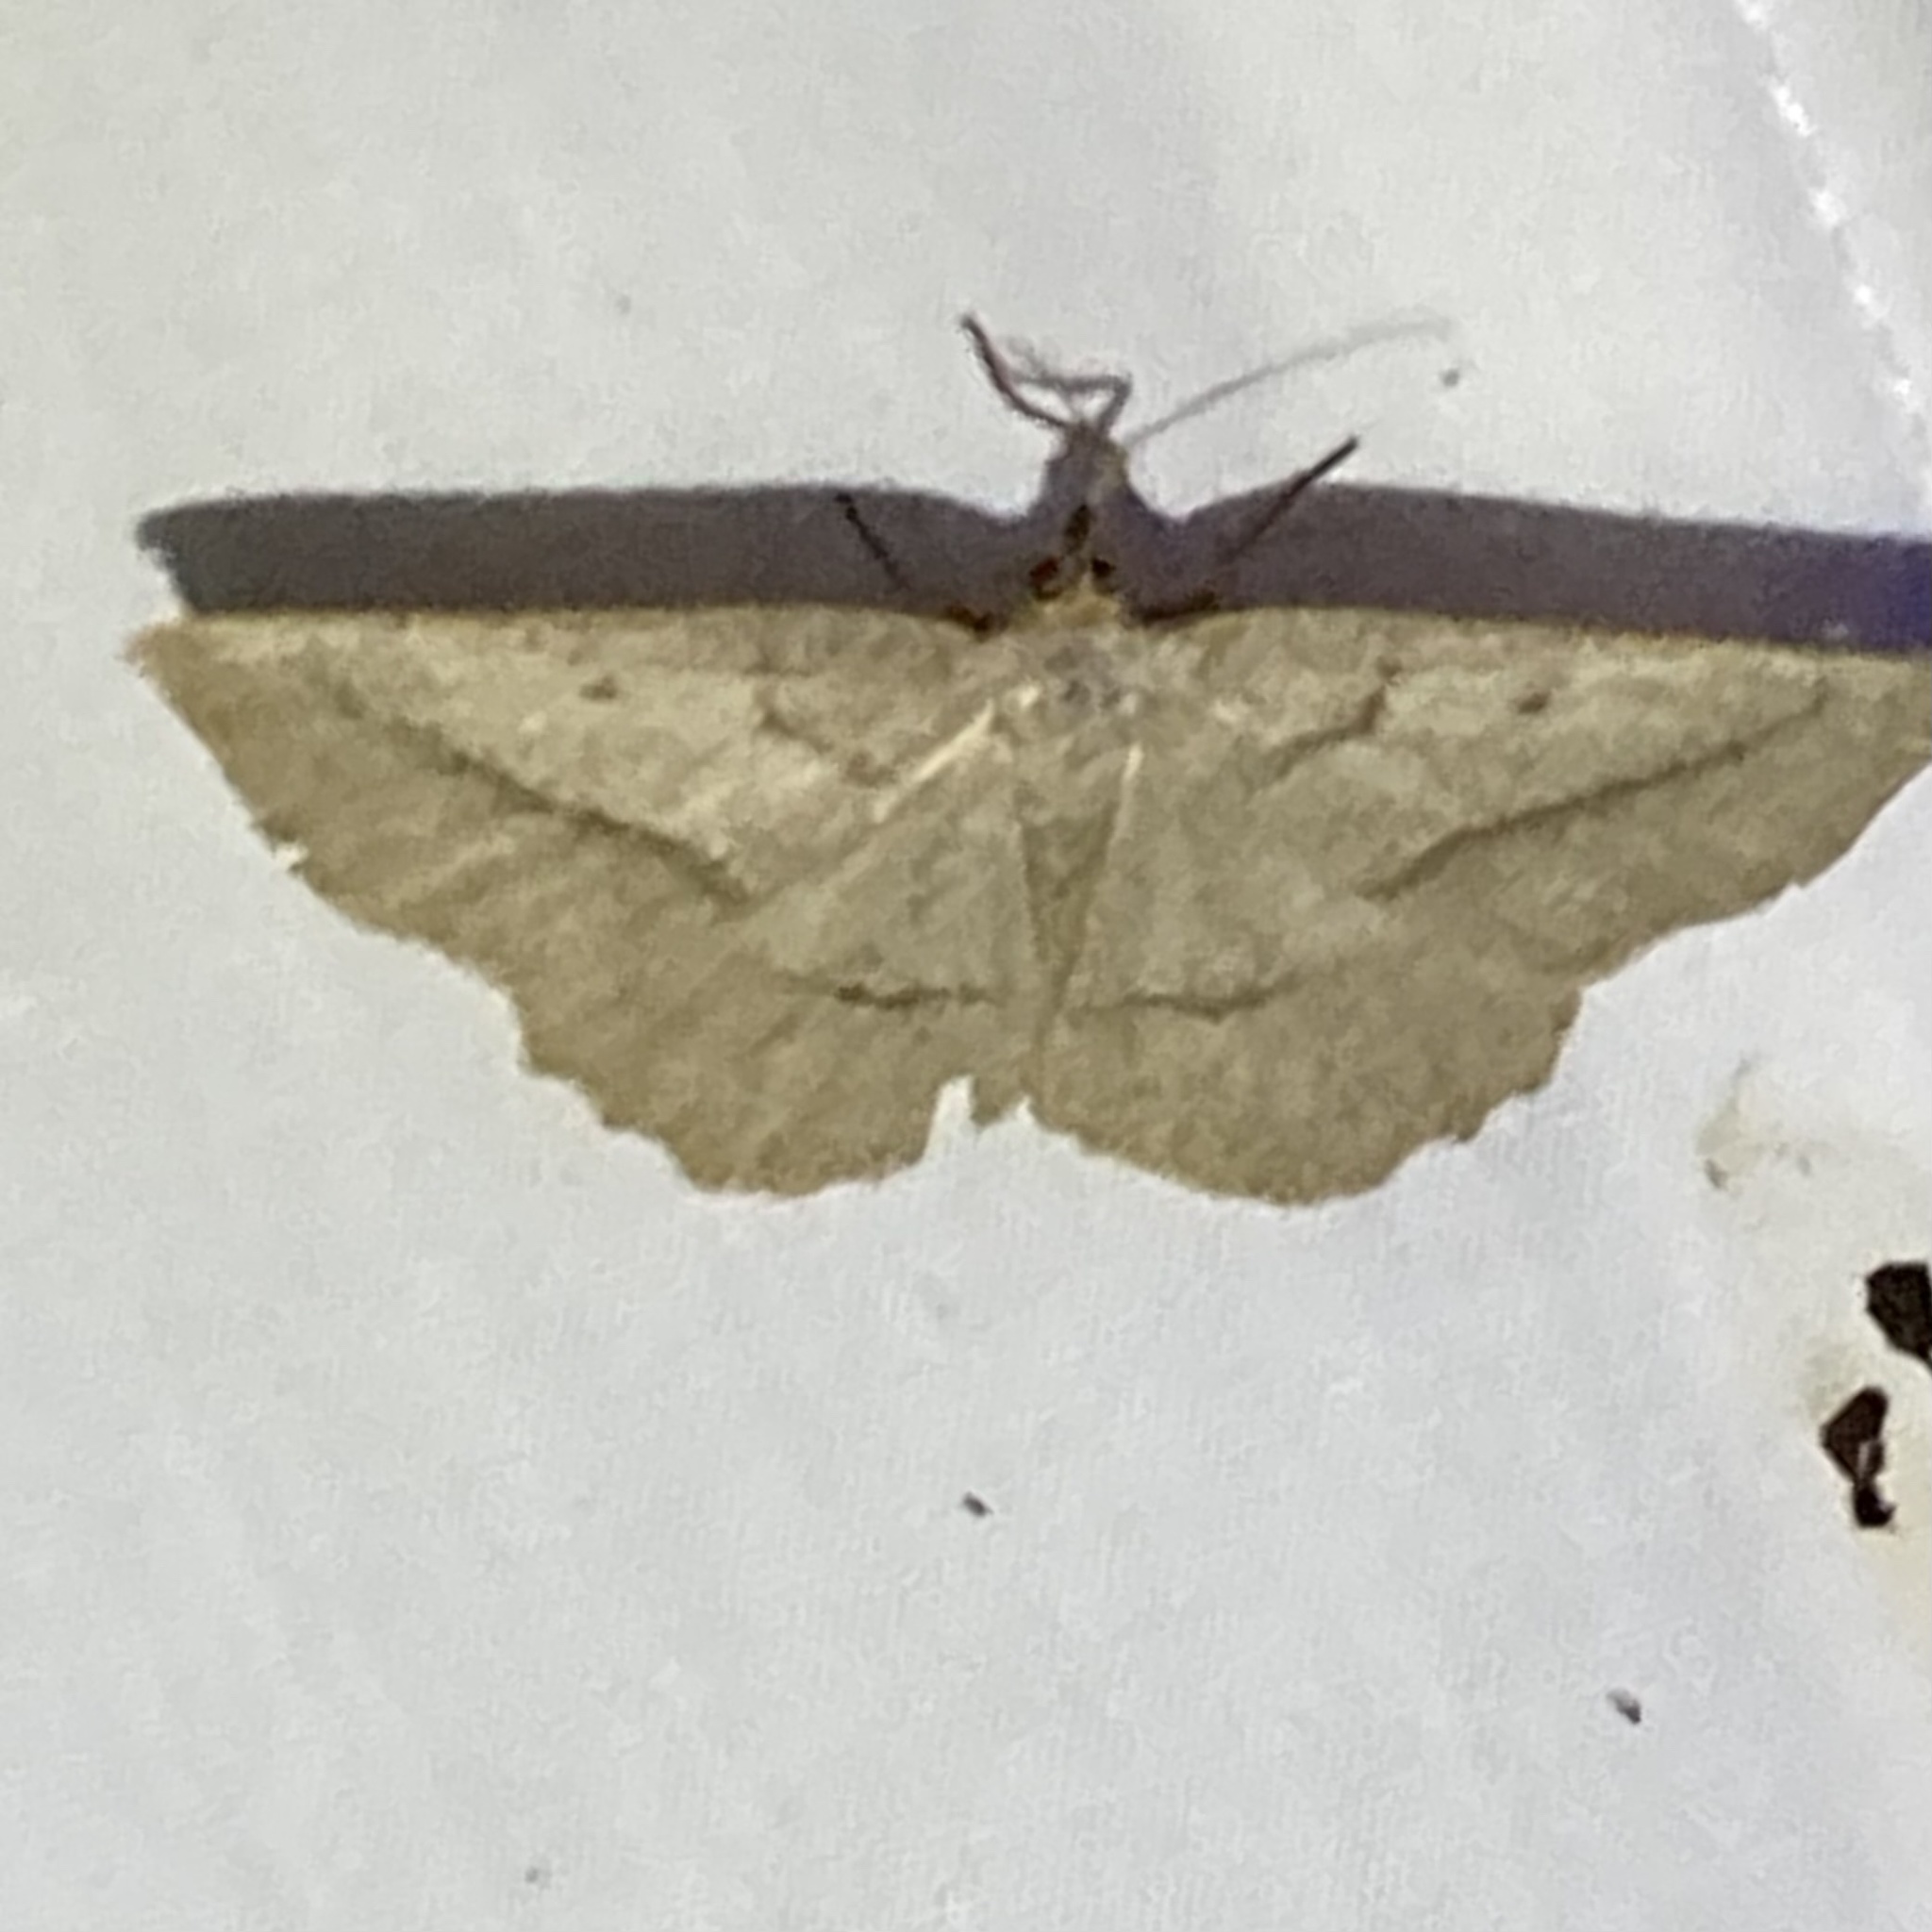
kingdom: Animalia
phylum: Arthropoda
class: Insecta
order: Lepidoptera
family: Geometridae
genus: Euchlaena
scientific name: Euchlaena irraria
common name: Least-marked euchlaena
